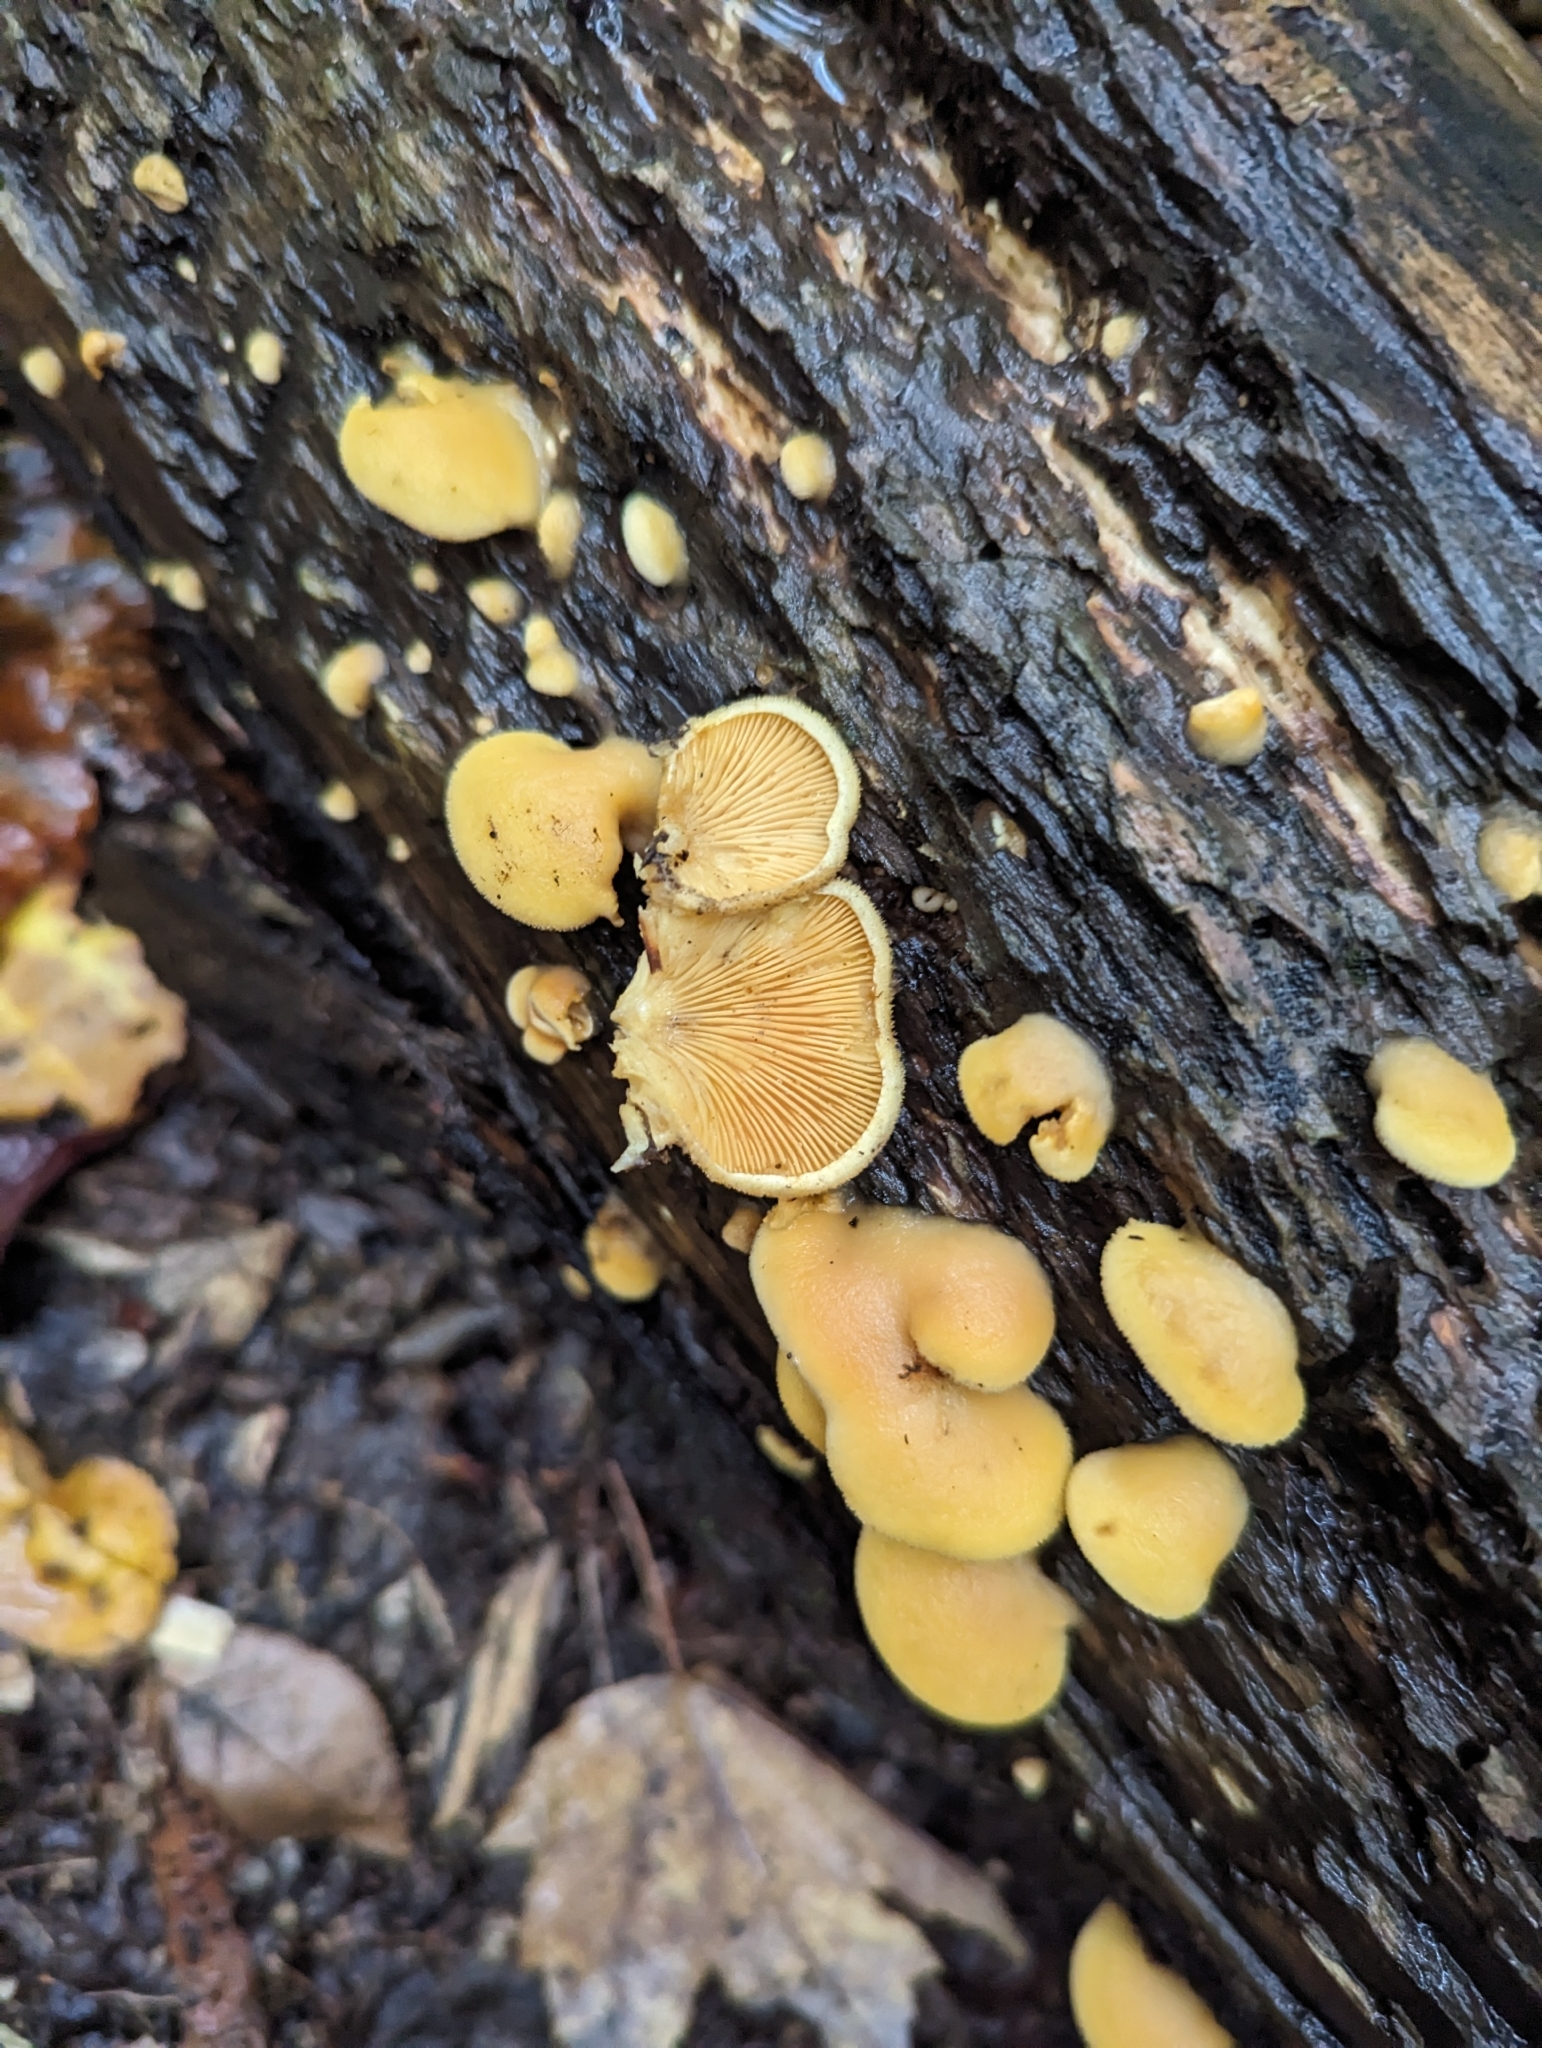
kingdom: Fungi
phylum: Basidiomycota
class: Agaricomycetes
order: Agaricales
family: Phyllotopsidaceae
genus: Phyllotopsis
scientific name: Phyllotopsis nidulans
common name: Orange mock oyster
